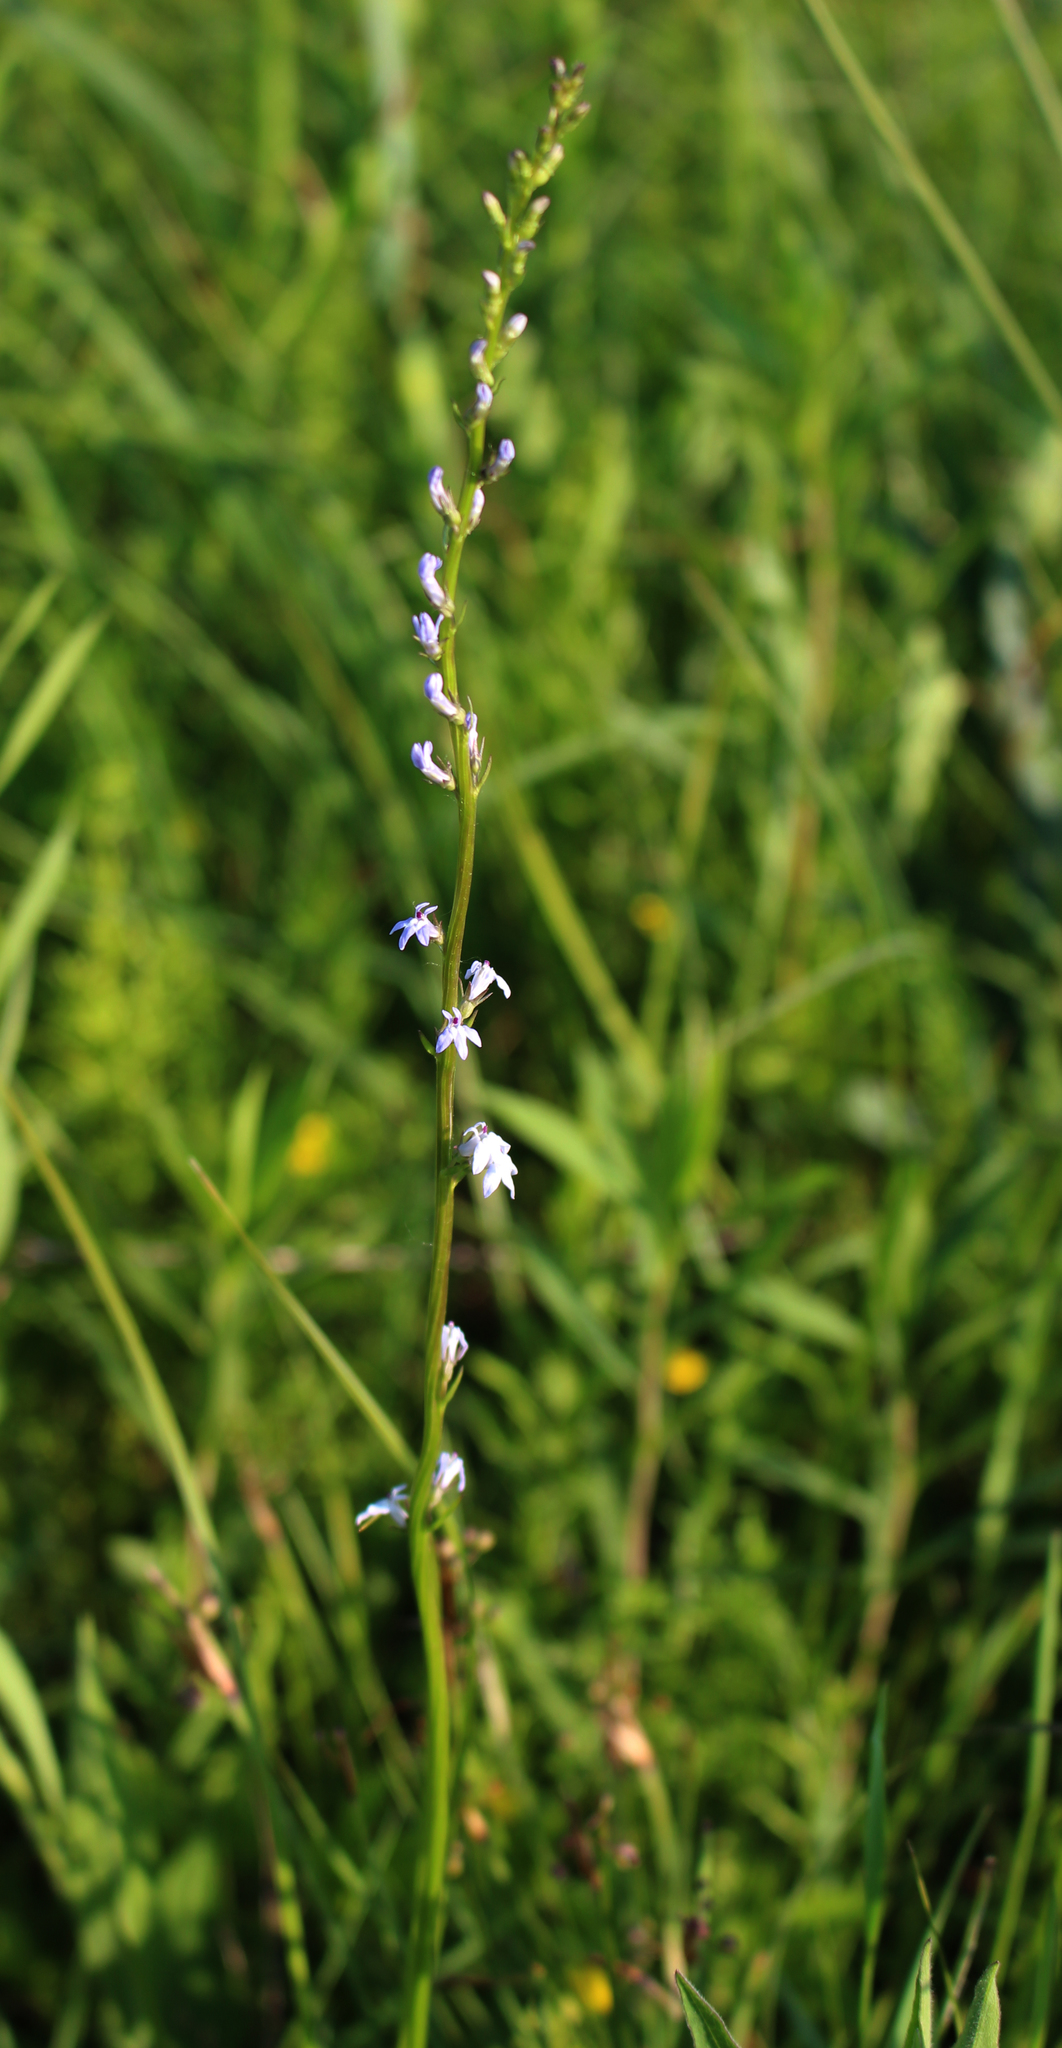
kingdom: Plantae
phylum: Tracheophyta
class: Magnoliopsida
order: Asterales
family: Campanulaceae
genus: Lobelia
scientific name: Lobelia spicata
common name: Pale-spike lobelia
